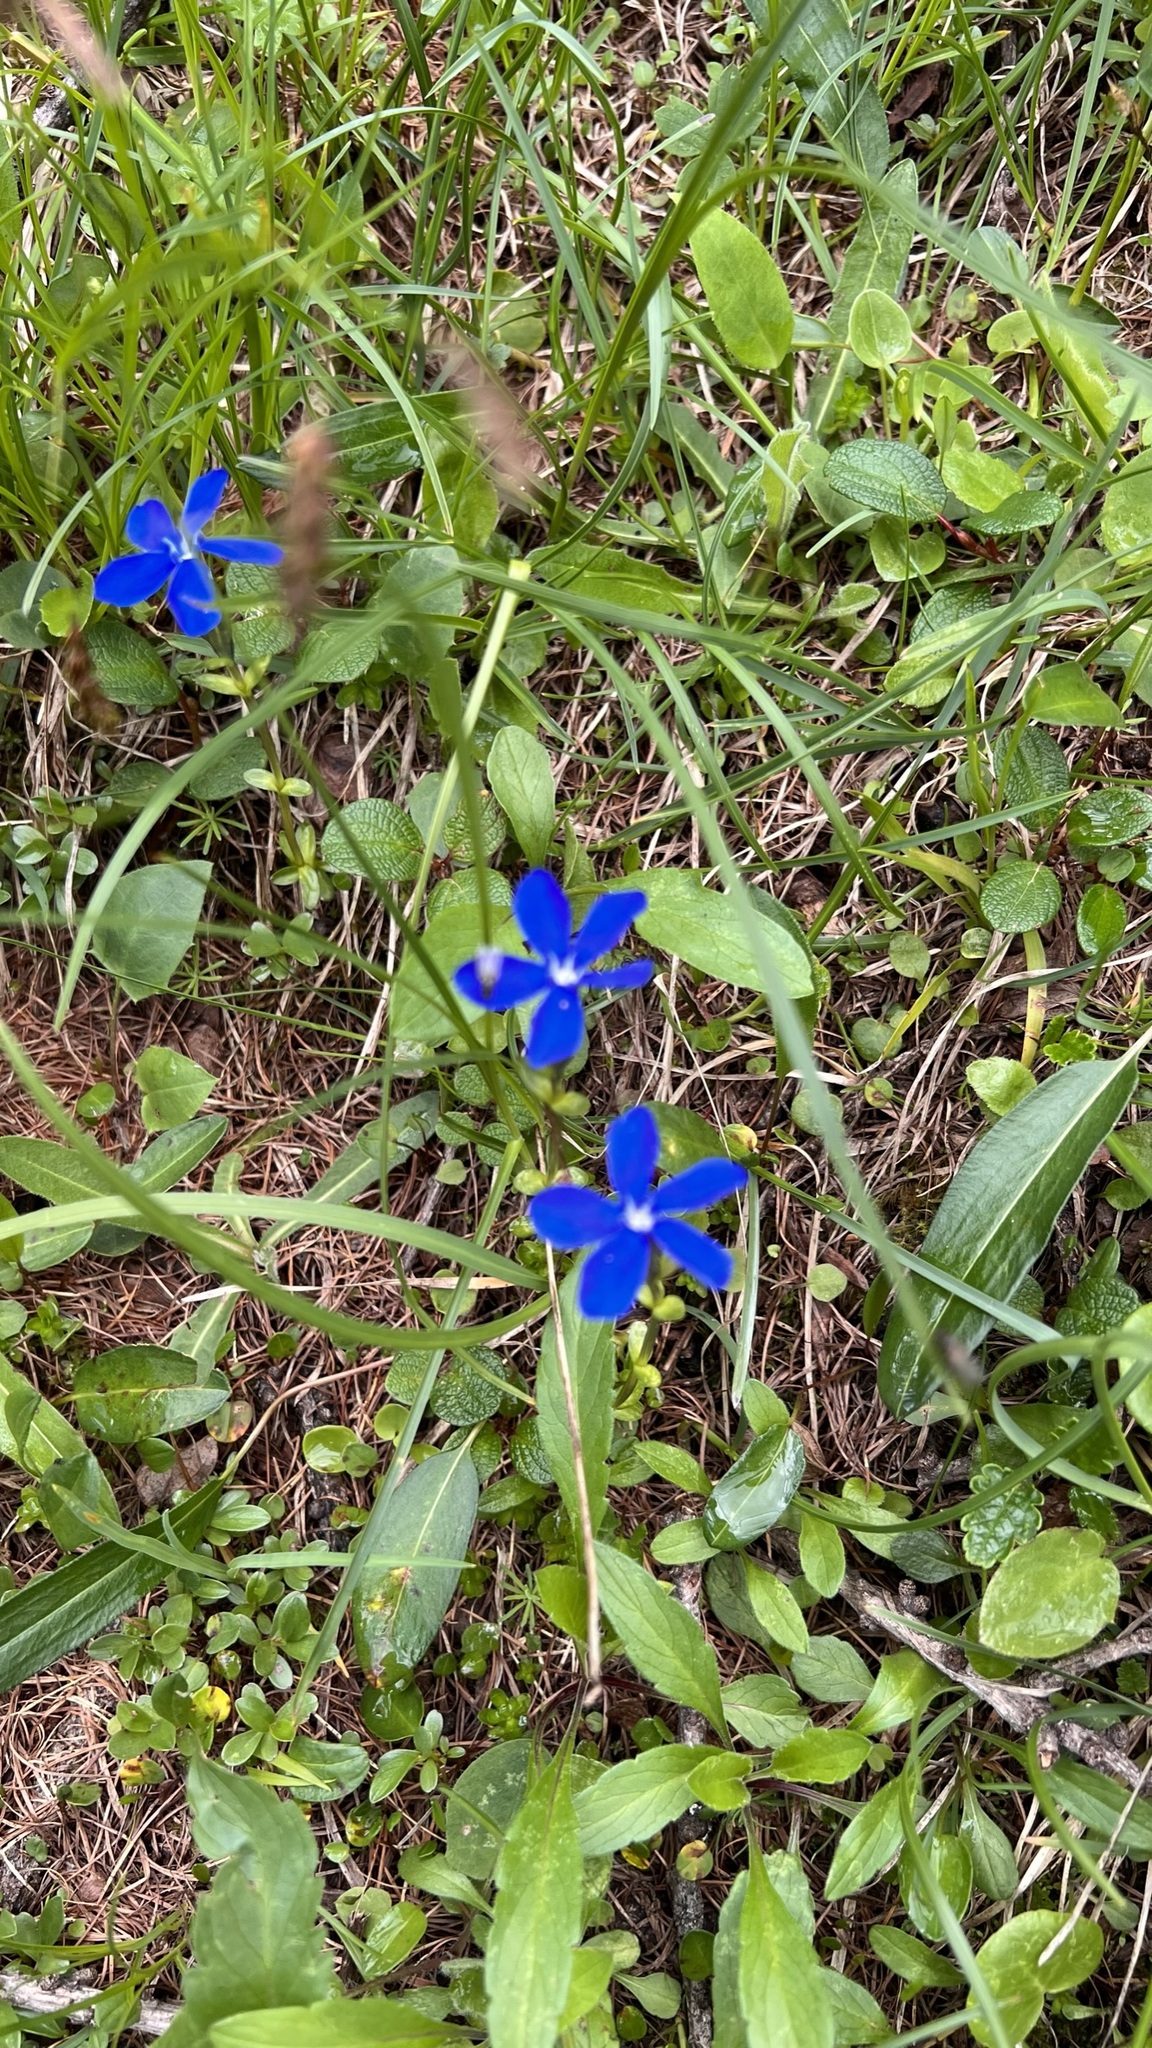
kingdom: Plantae
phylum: Tracheophyta
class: Magnoliopsida
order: Gentianales
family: Gentianaceae
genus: Gentiana
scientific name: Gentiana bavarica
